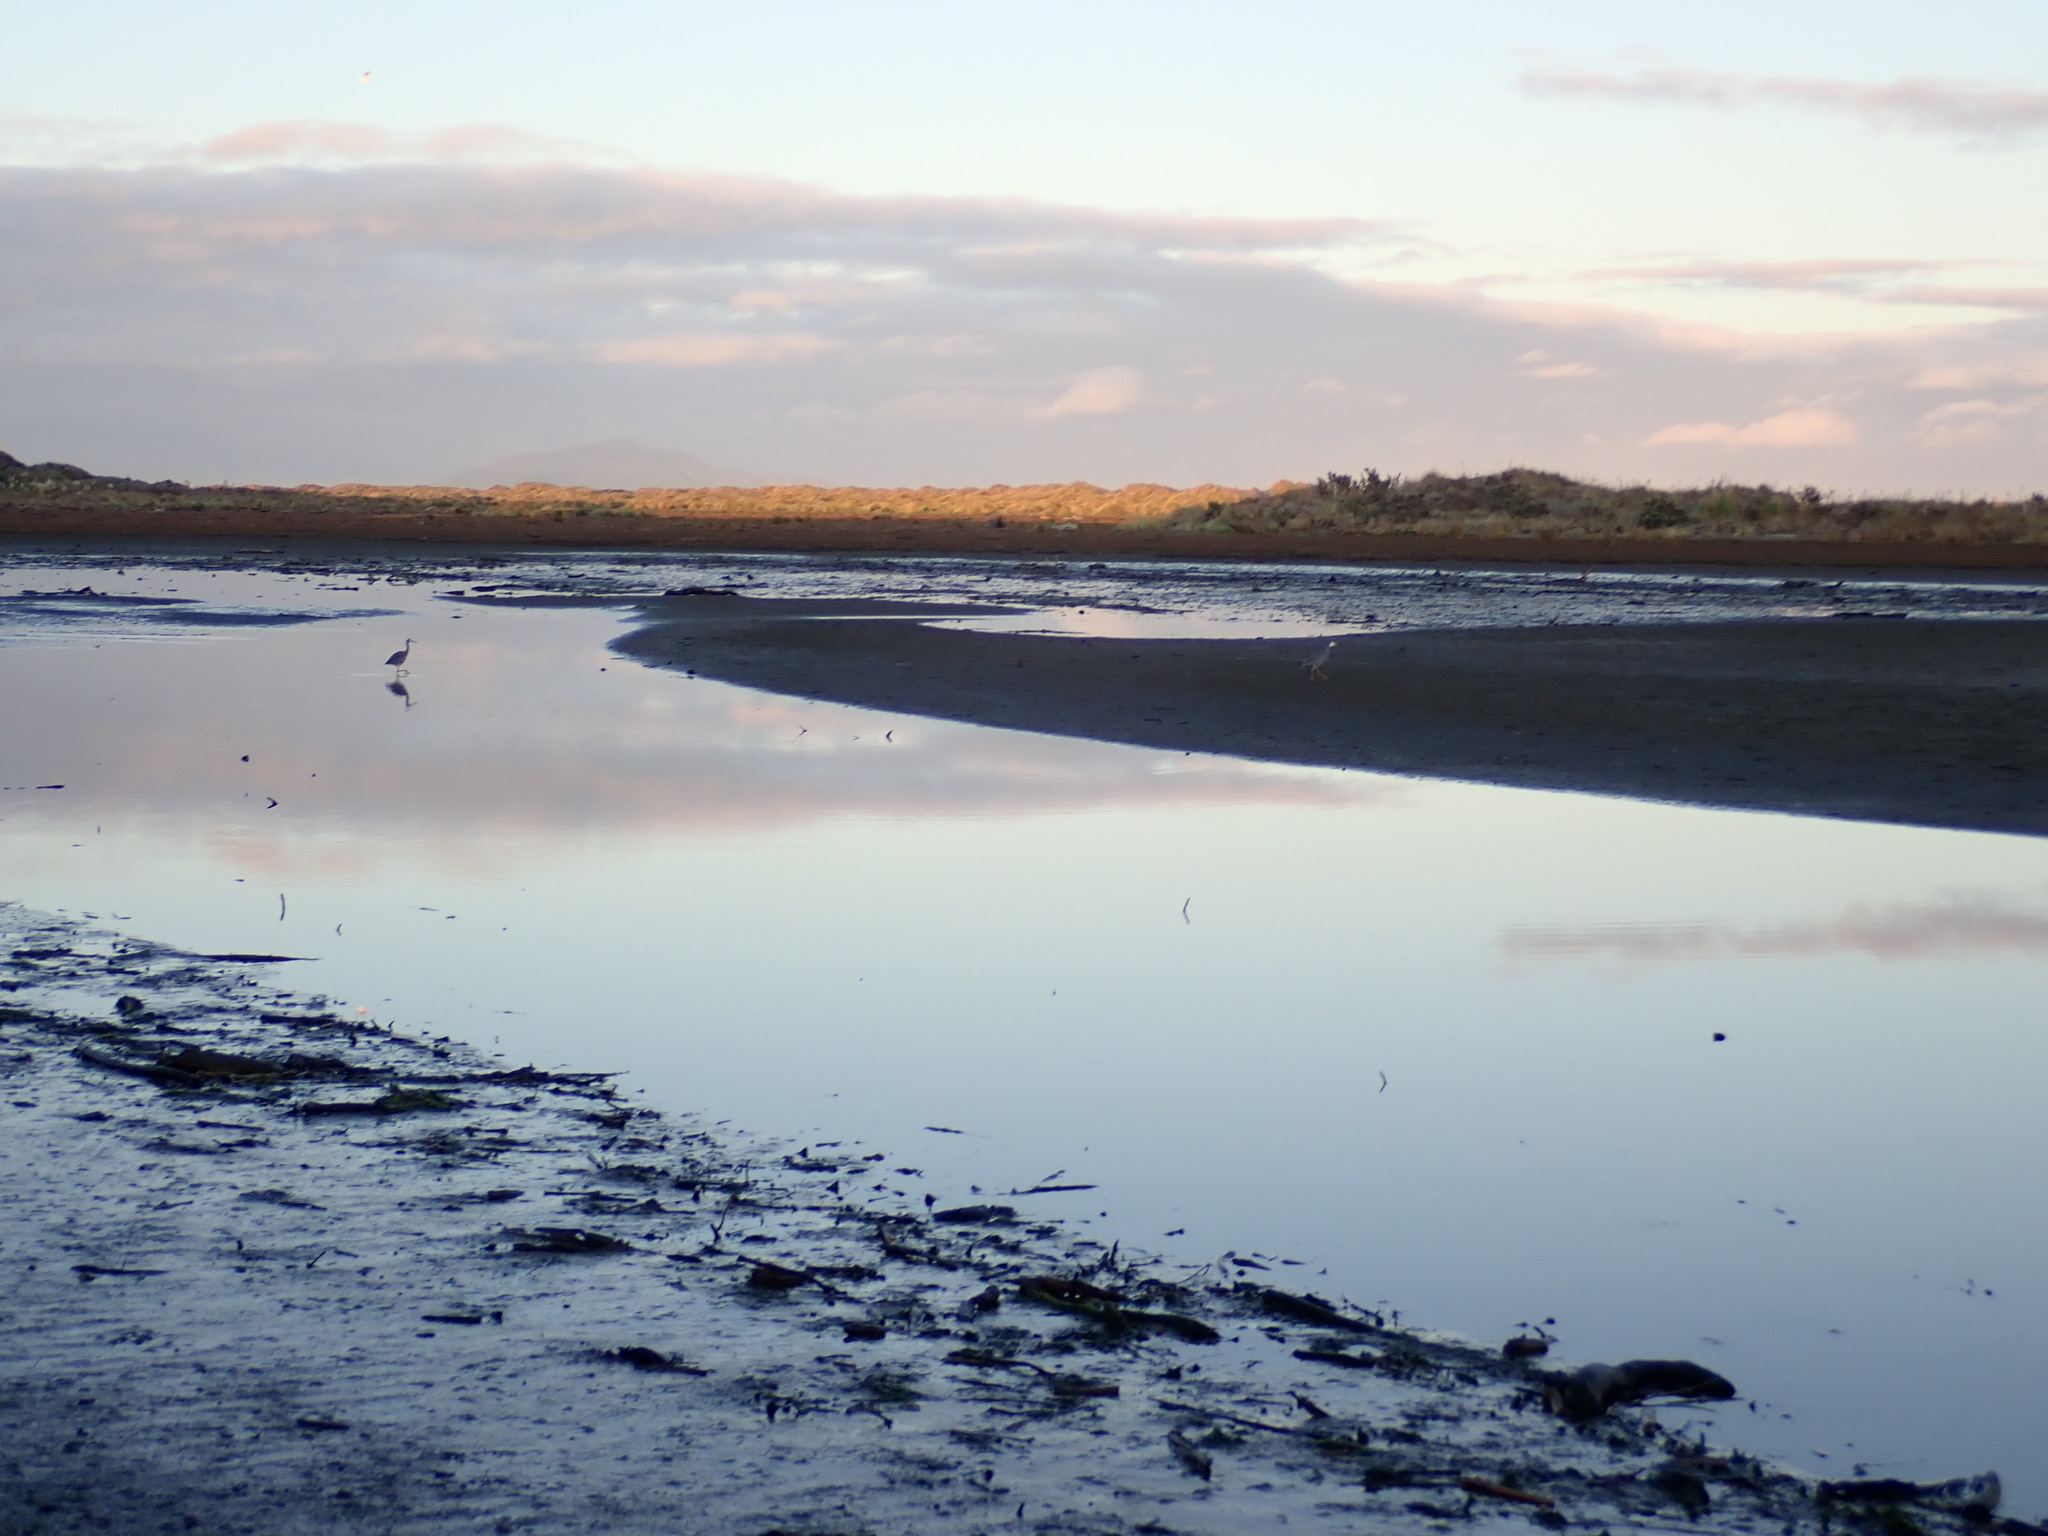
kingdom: Animalia
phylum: Chordata
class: Aves
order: Pelecaniformes
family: Ardeidae
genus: Egretta
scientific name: Egretta novaehollandiae
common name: White-faced heron
